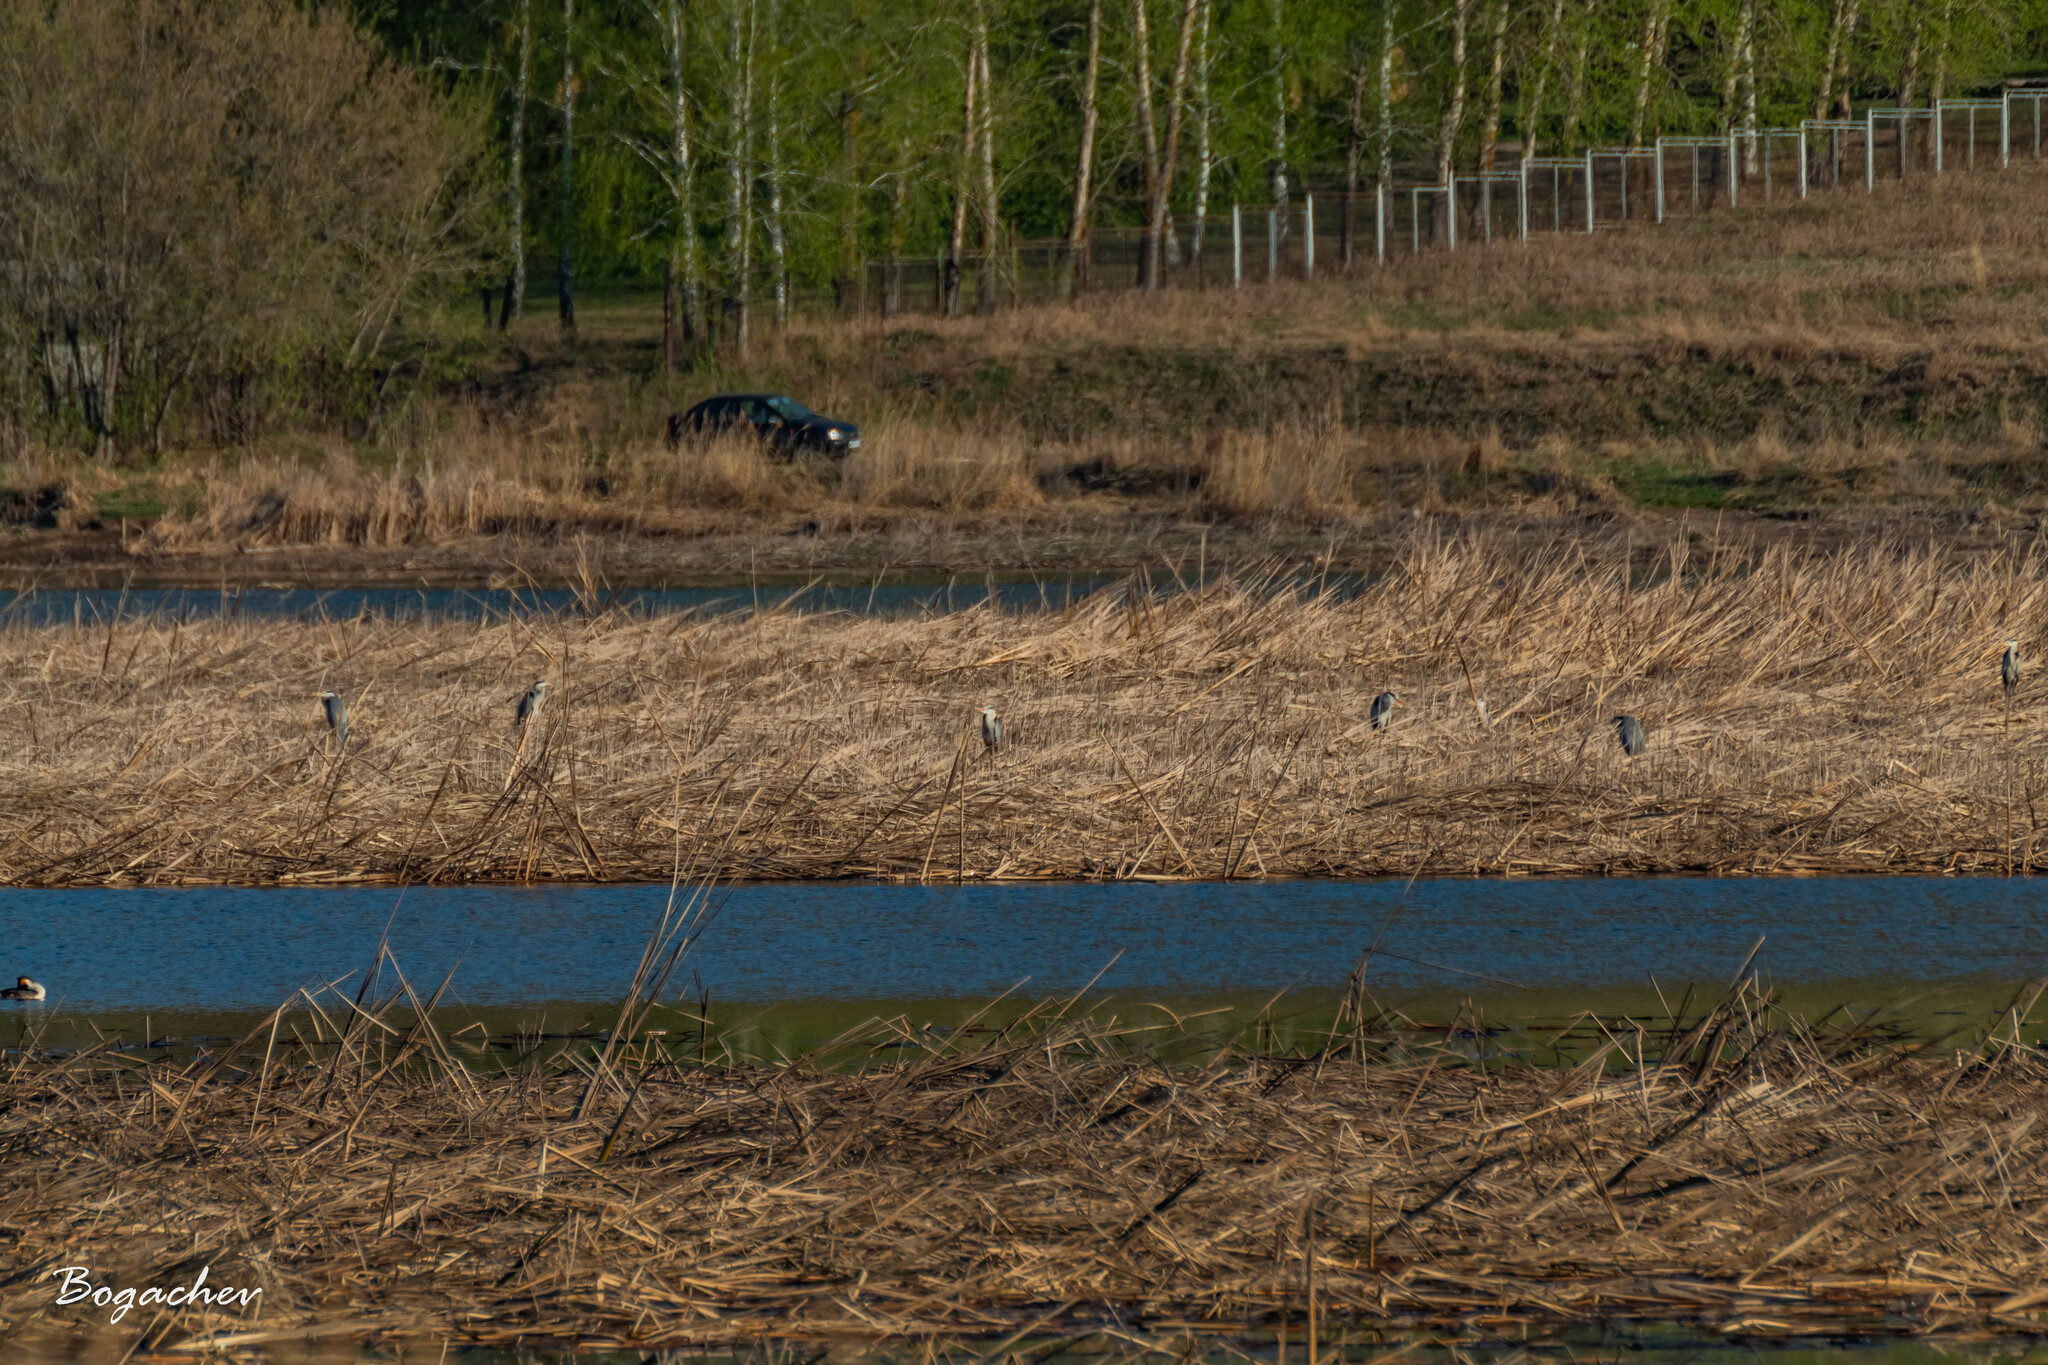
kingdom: Animalia
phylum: Chordata
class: Aves
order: Pelecaniformes
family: Ardeidae
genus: Ardea
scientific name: Ardea cinerea
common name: Grey heron
